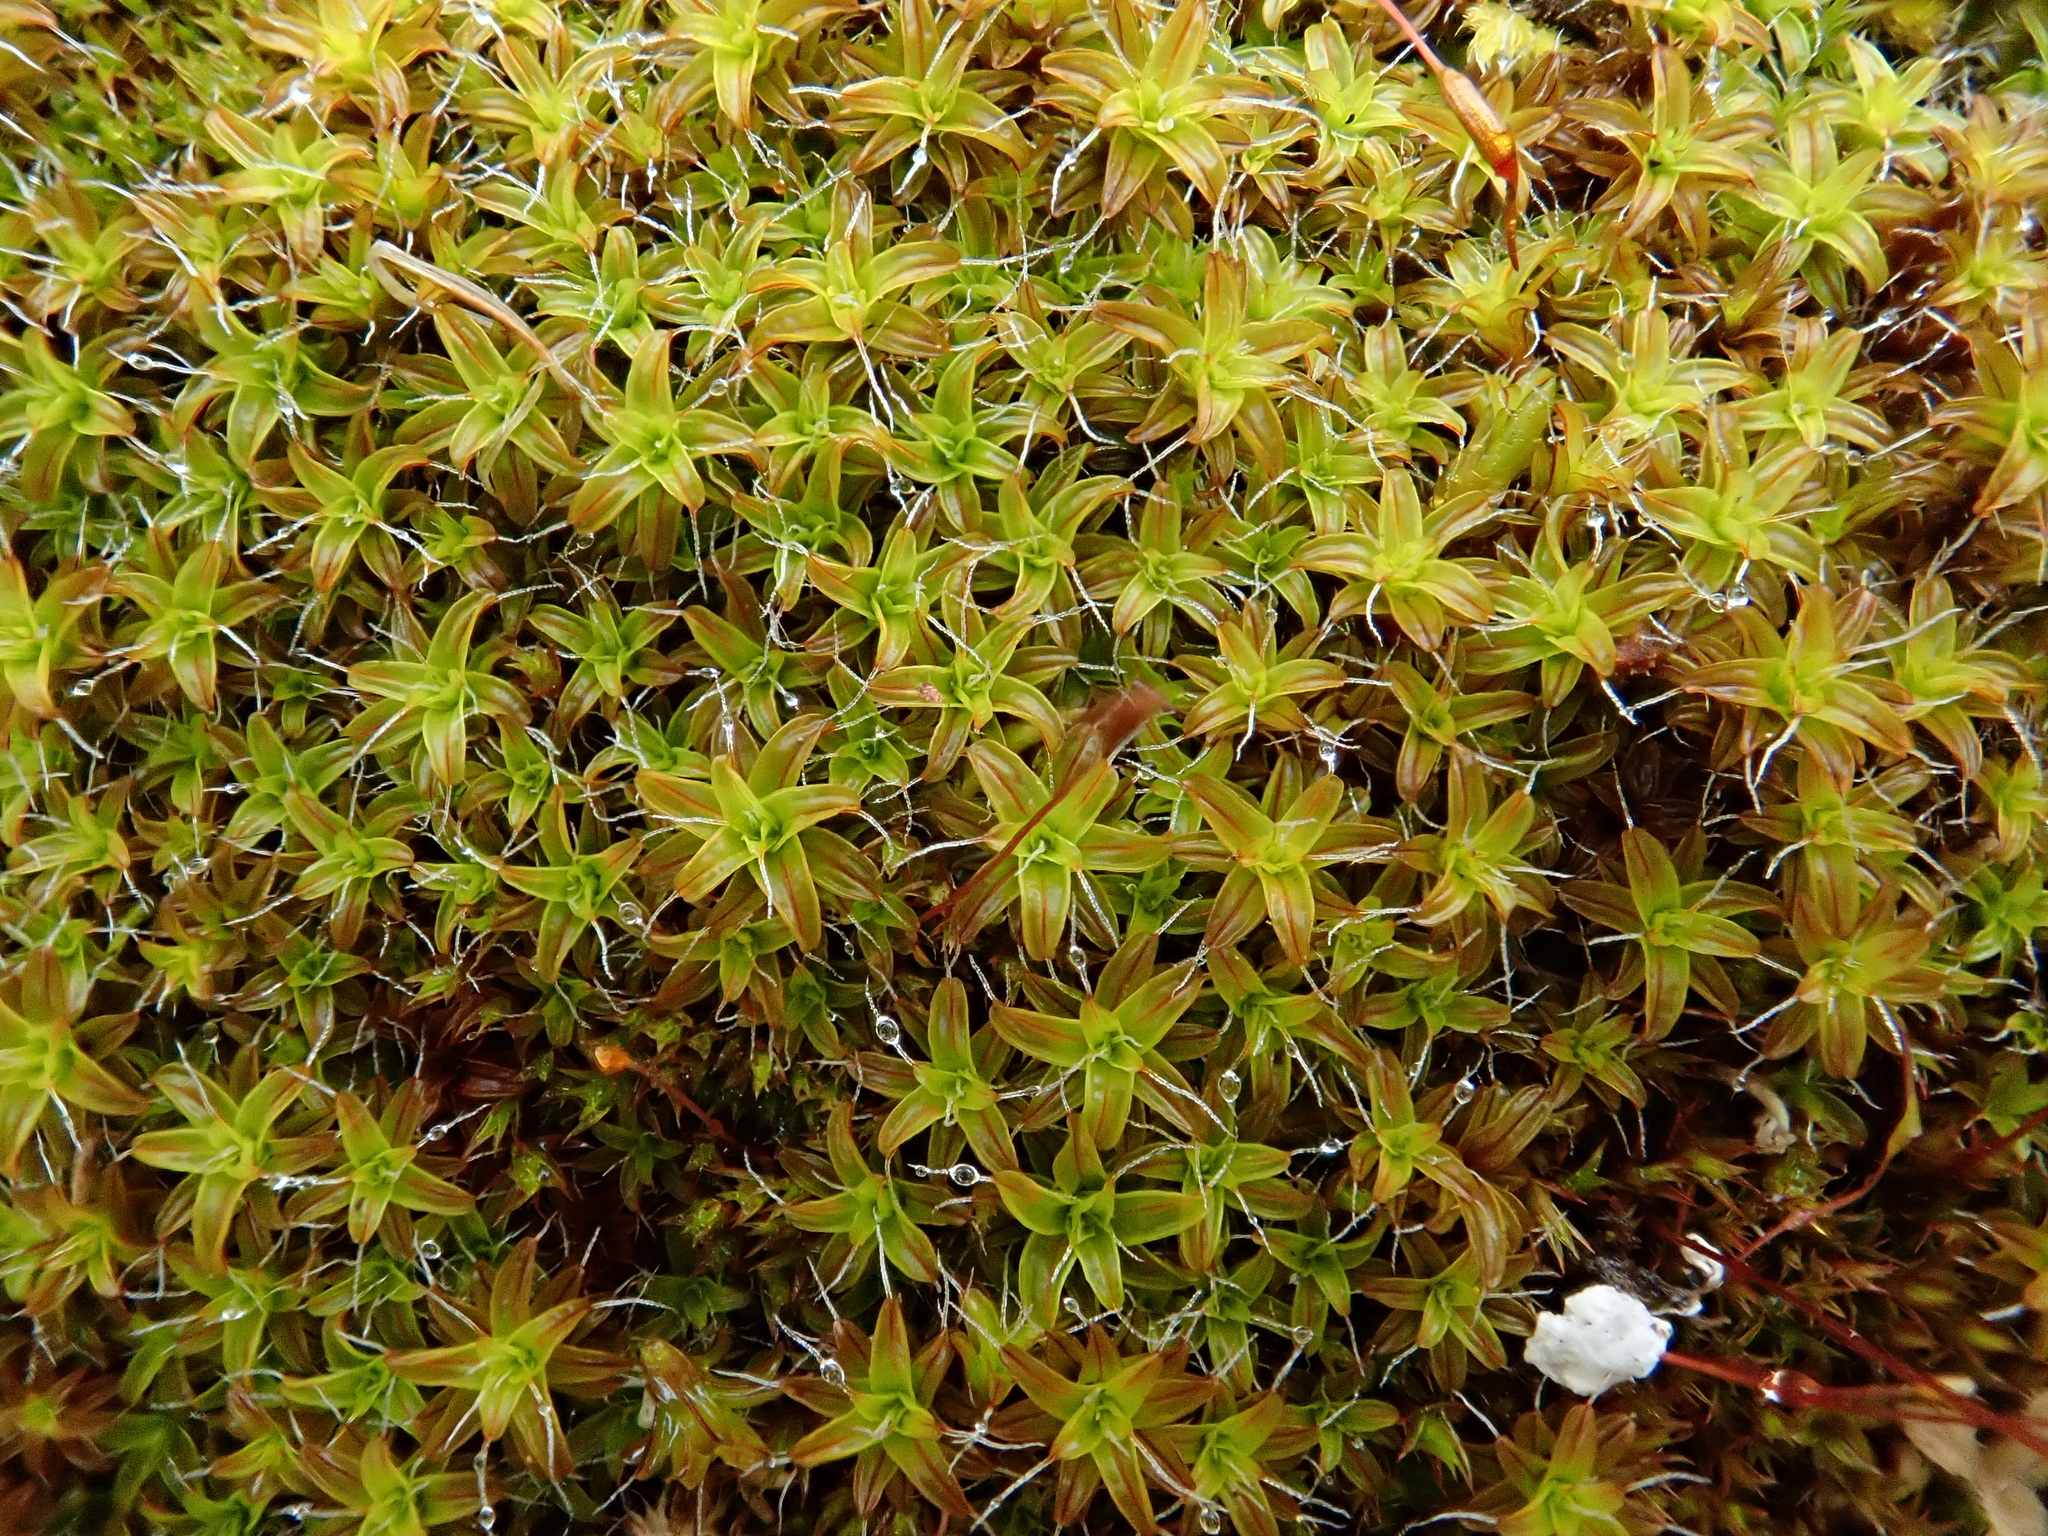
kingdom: Plantae
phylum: Bryophyta
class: Bryopsida
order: Pottiales
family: Pottiaceae
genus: Syntrichia
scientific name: Syntrichia ruralis
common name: Sidewalk screw moss
